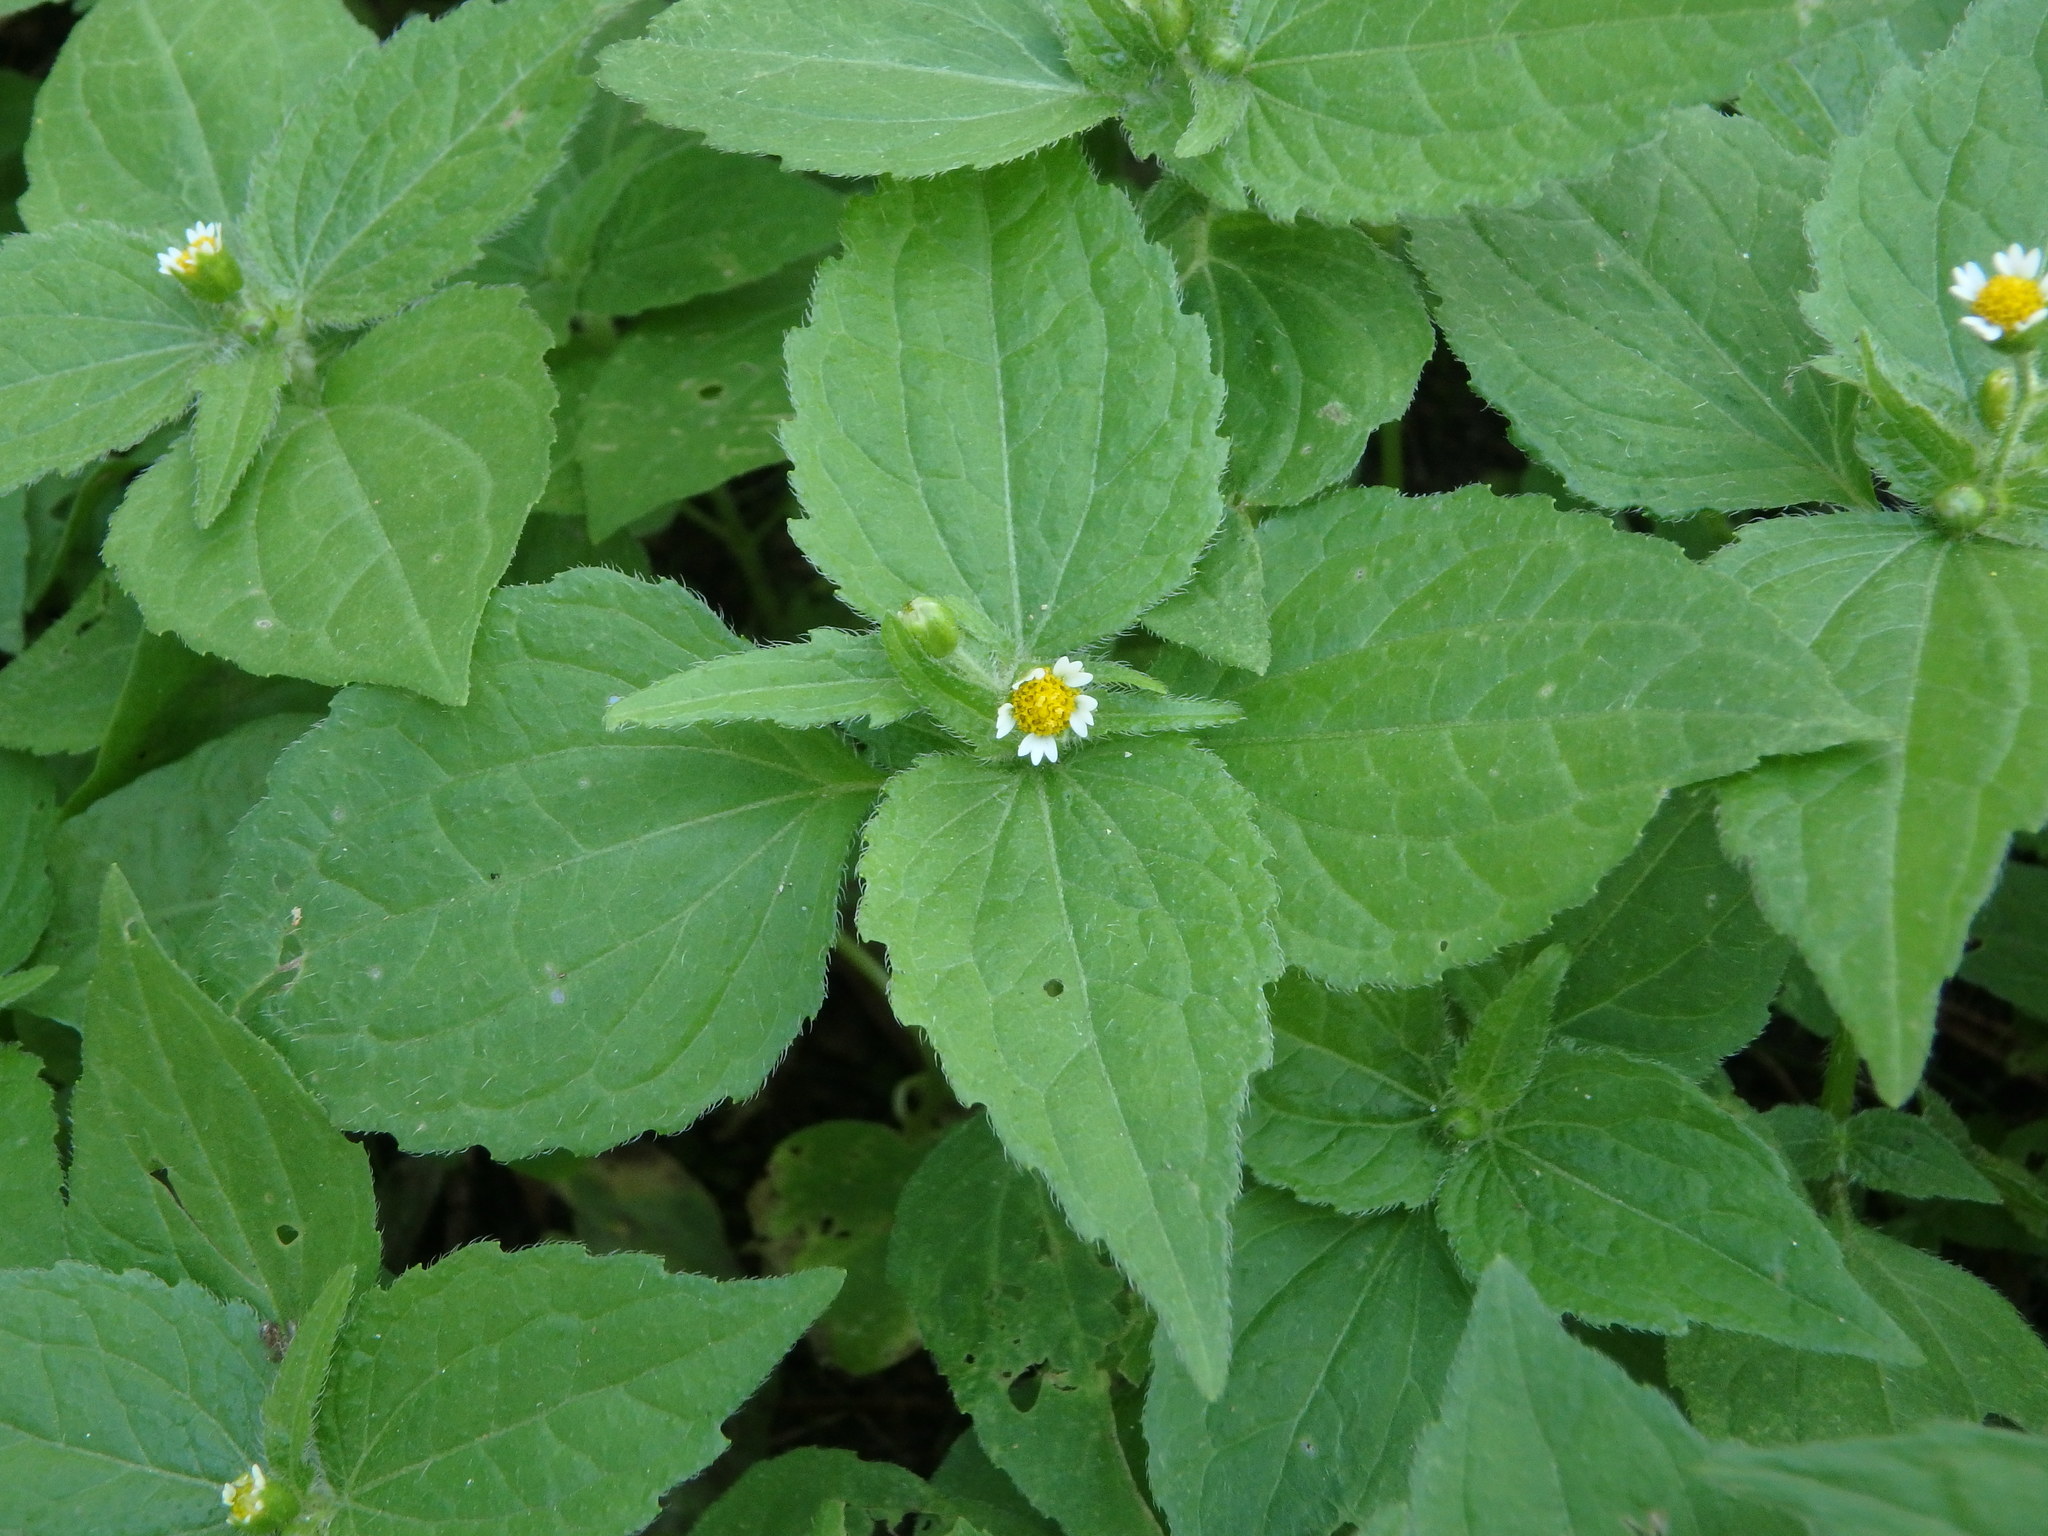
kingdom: Plantae
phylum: Tracheophyta
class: Magnoliopsida
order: Asterales
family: Asteraceae
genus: Galinsoga
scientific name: Galinsoga quadriradiata
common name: Shaggy soldier
